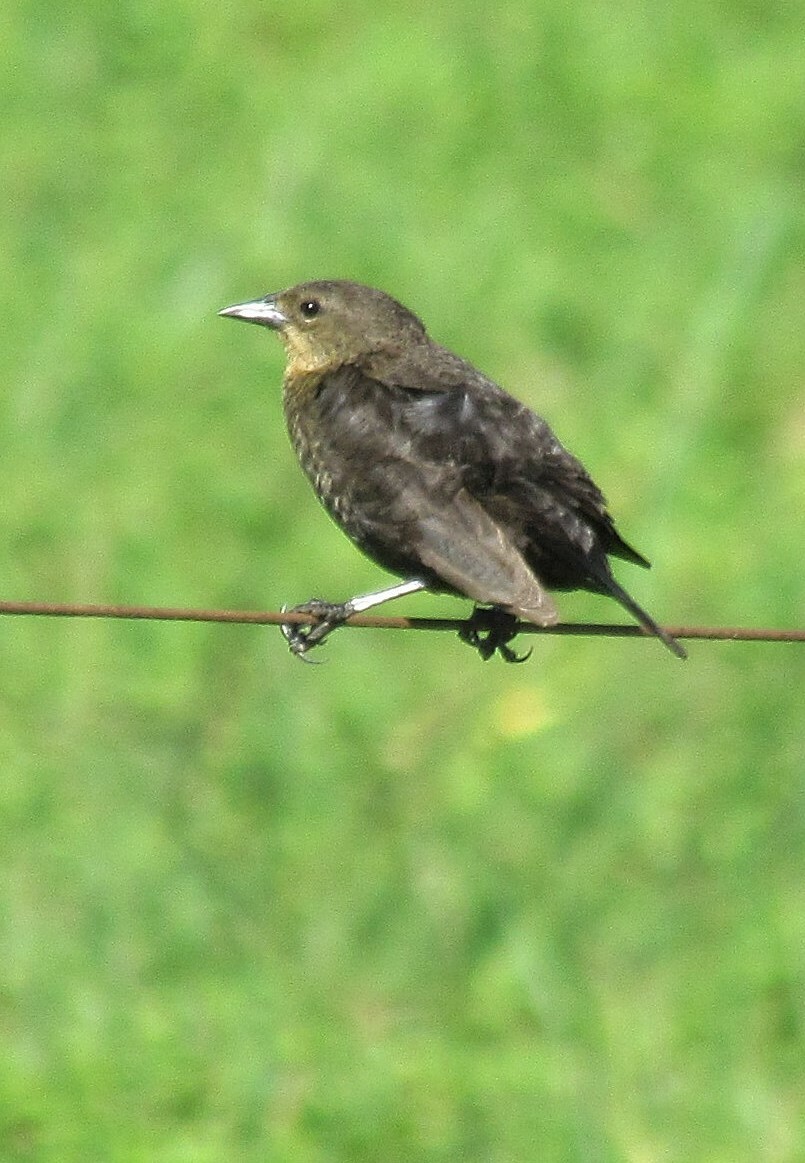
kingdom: Animalia
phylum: Chordata
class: Aves
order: Passeriformes
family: Icteridae
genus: Chrysomus
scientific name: Chrysomus ruficapillus
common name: Chestnut-capped blackbird
